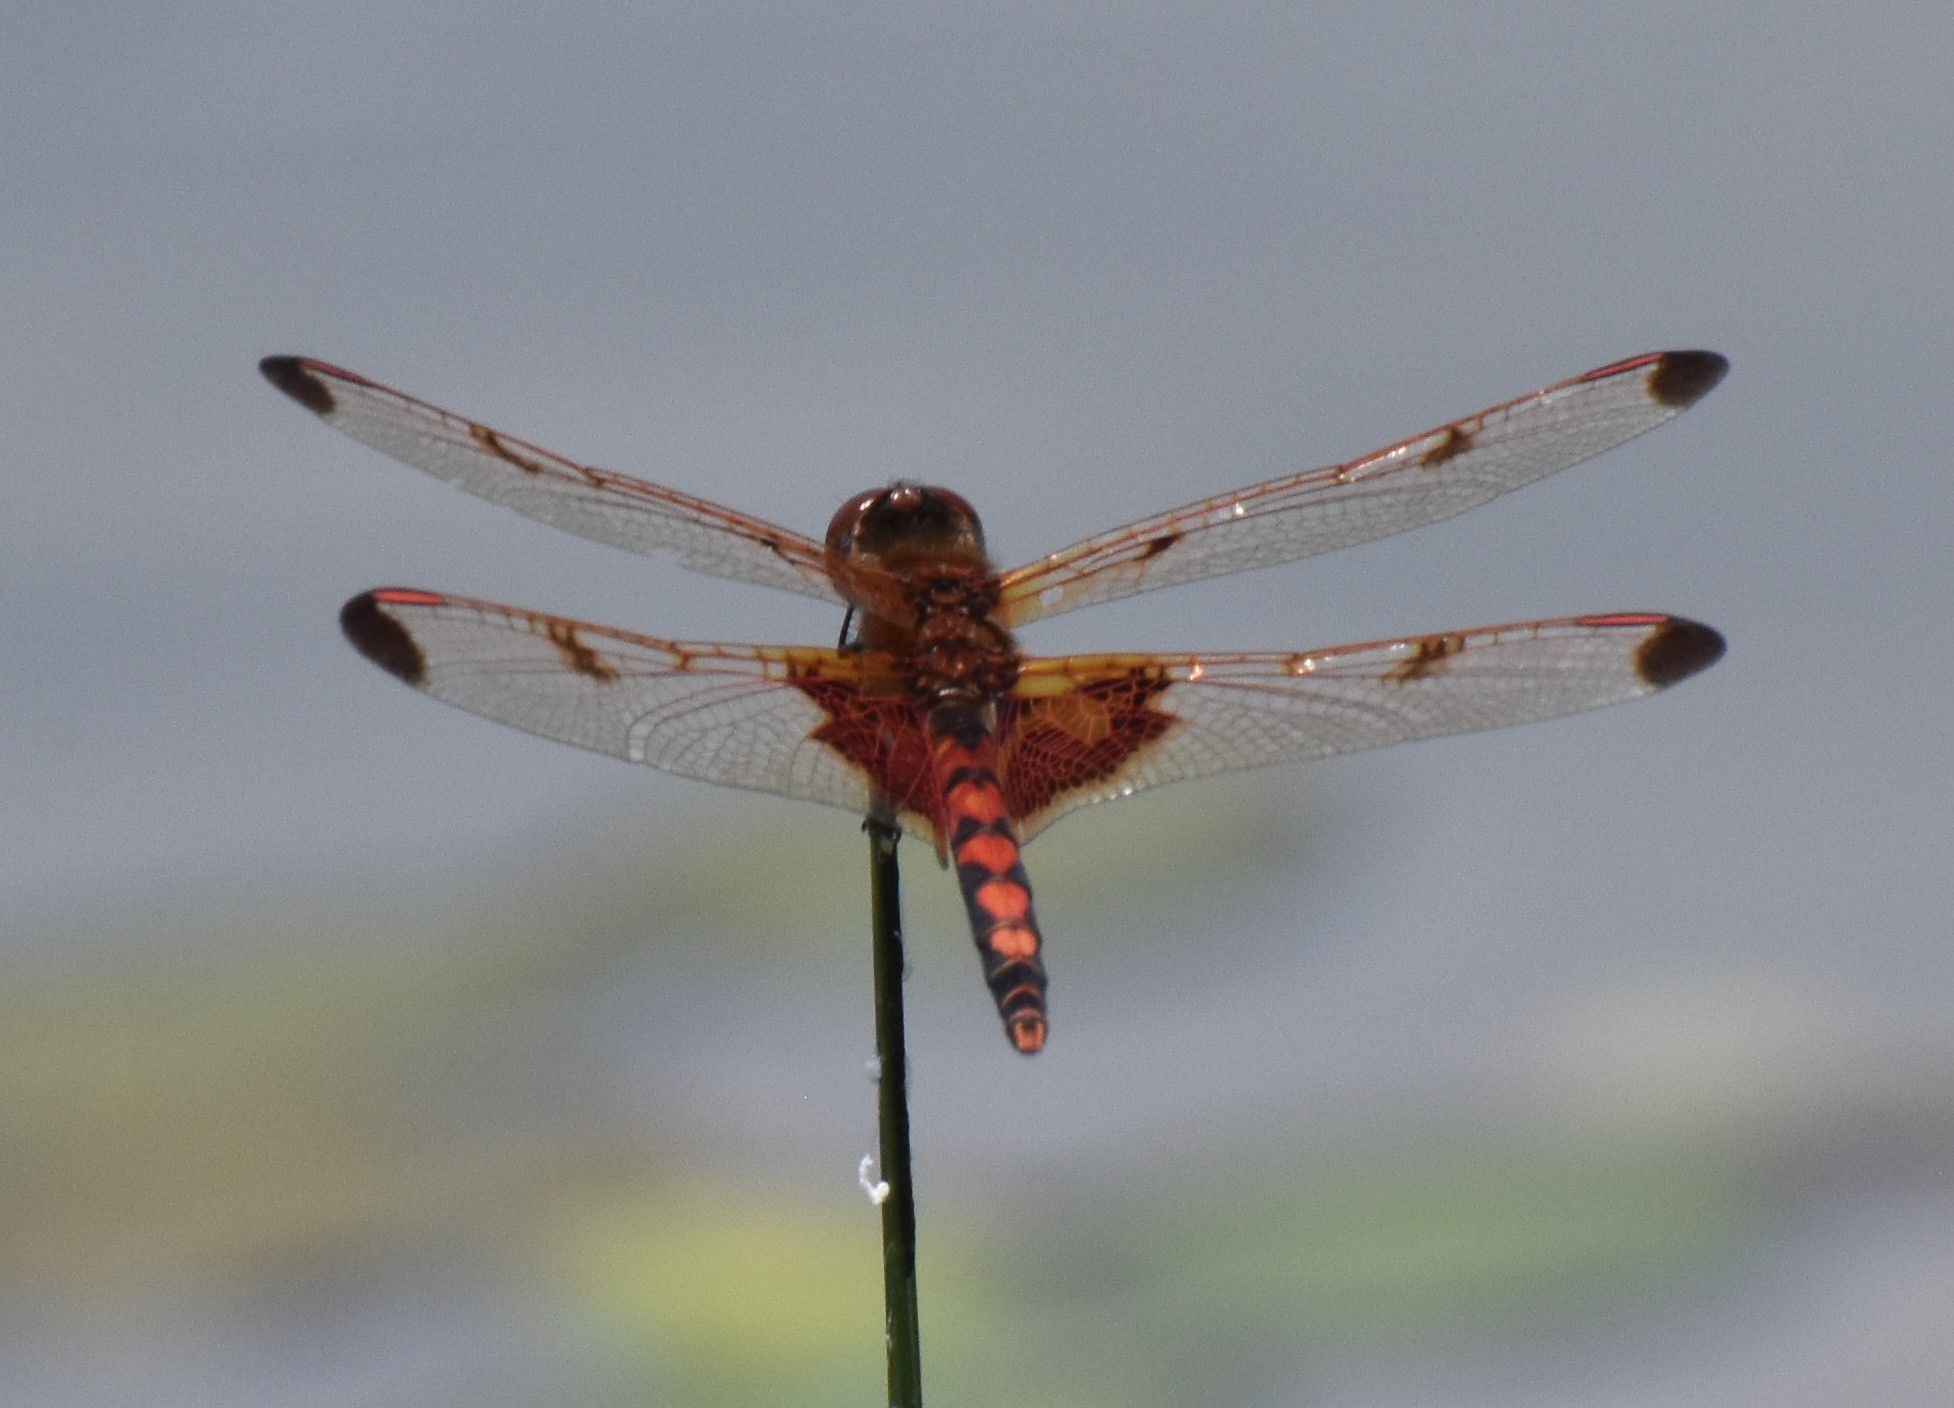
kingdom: Animalia
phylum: Arthropoda
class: Insecta
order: Odonata
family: Libellulidae
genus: Celithemis
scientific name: Celithemis elisa
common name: Calico pennant
